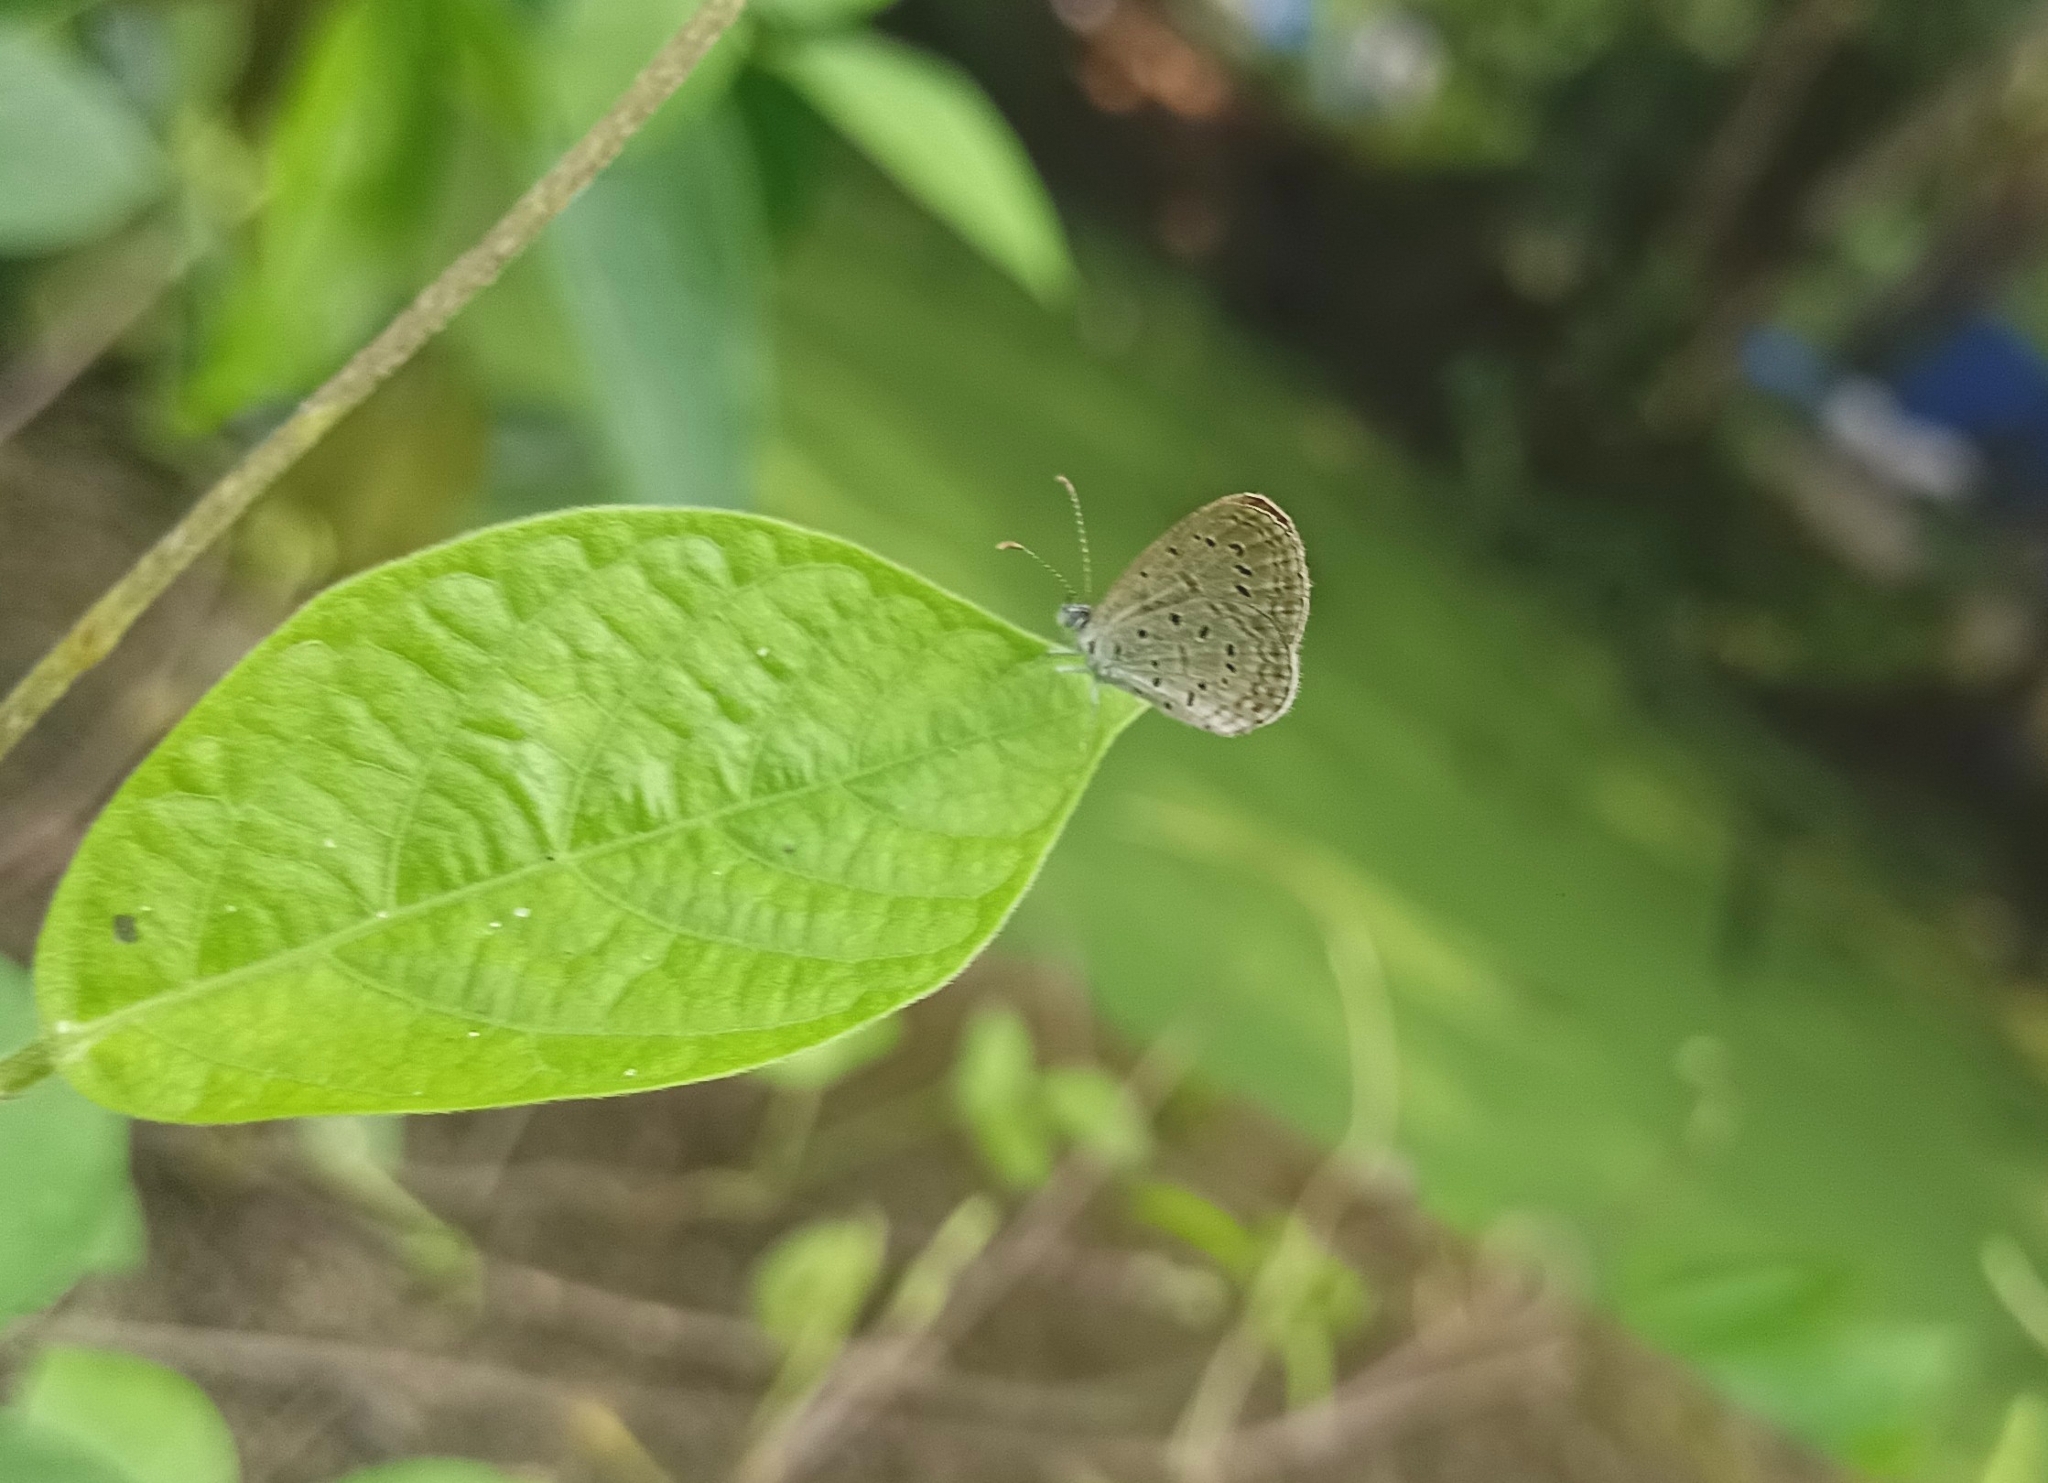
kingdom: Animalia
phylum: Arthropoda
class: Insecta
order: Lepidoptera
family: Lycaenidae
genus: Zizula
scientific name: Zizula hylax
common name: Gaika blue
